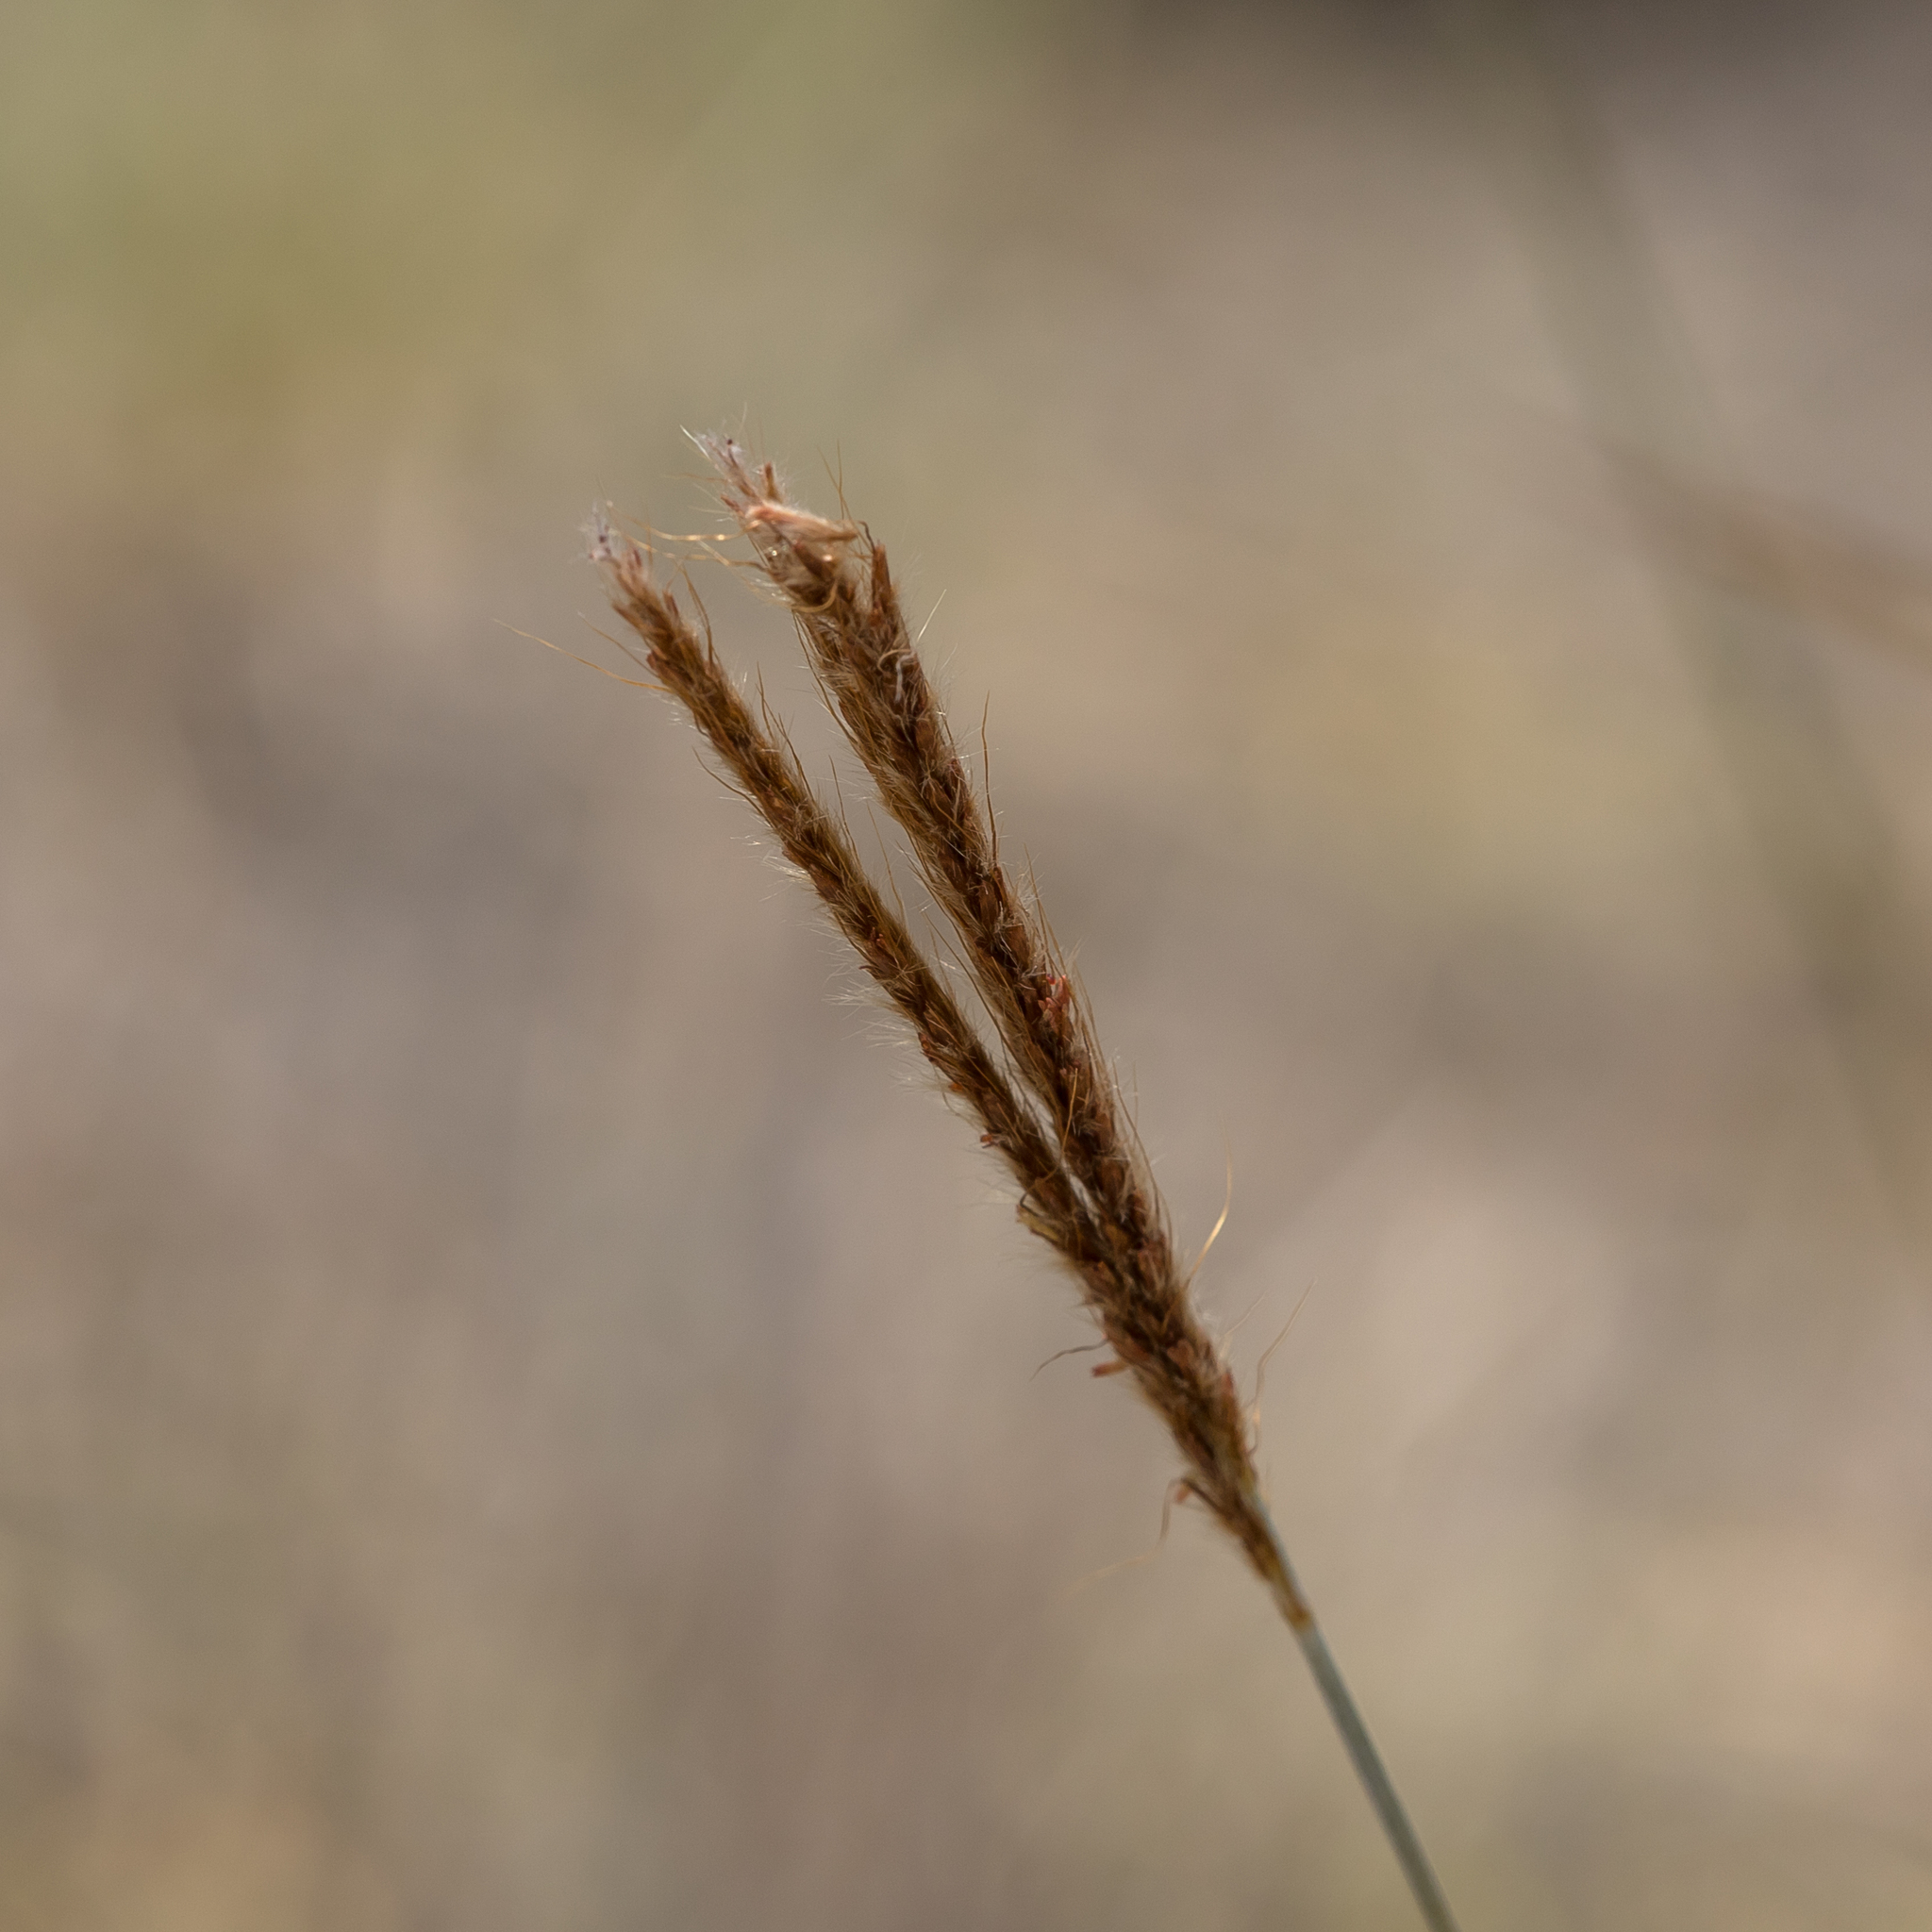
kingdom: Plantae
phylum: Tracheophyta
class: Liliopsida
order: Poales
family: Poaceae
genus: Eulalia
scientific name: Eulalia aurea
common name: Silky browntop
